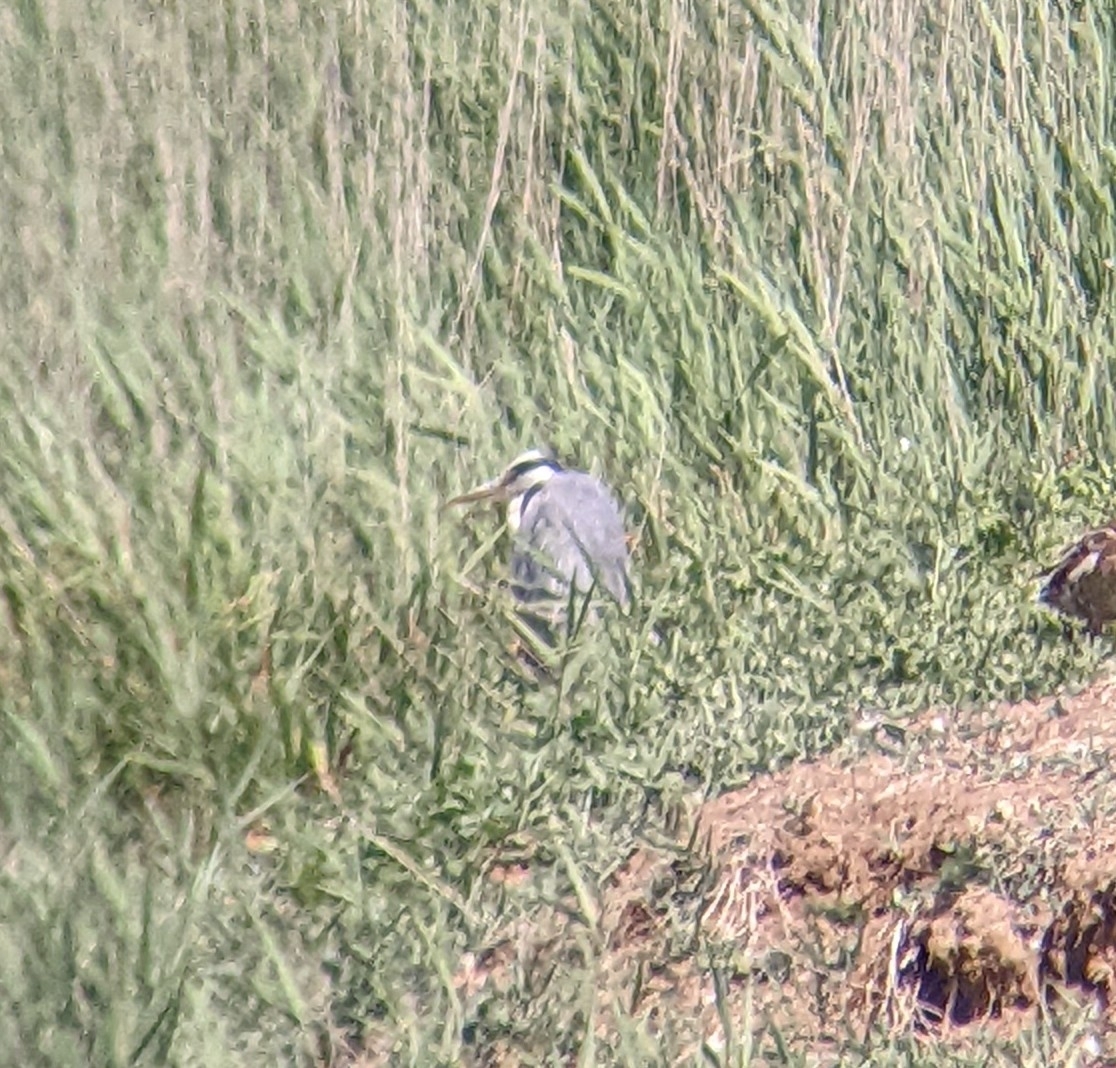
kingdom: Animalia
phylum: Chordata
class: Aves
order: Pelecaniformes
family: Ardeidae
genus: Ardea
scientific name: Ardea cinerea
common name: Grey heron
